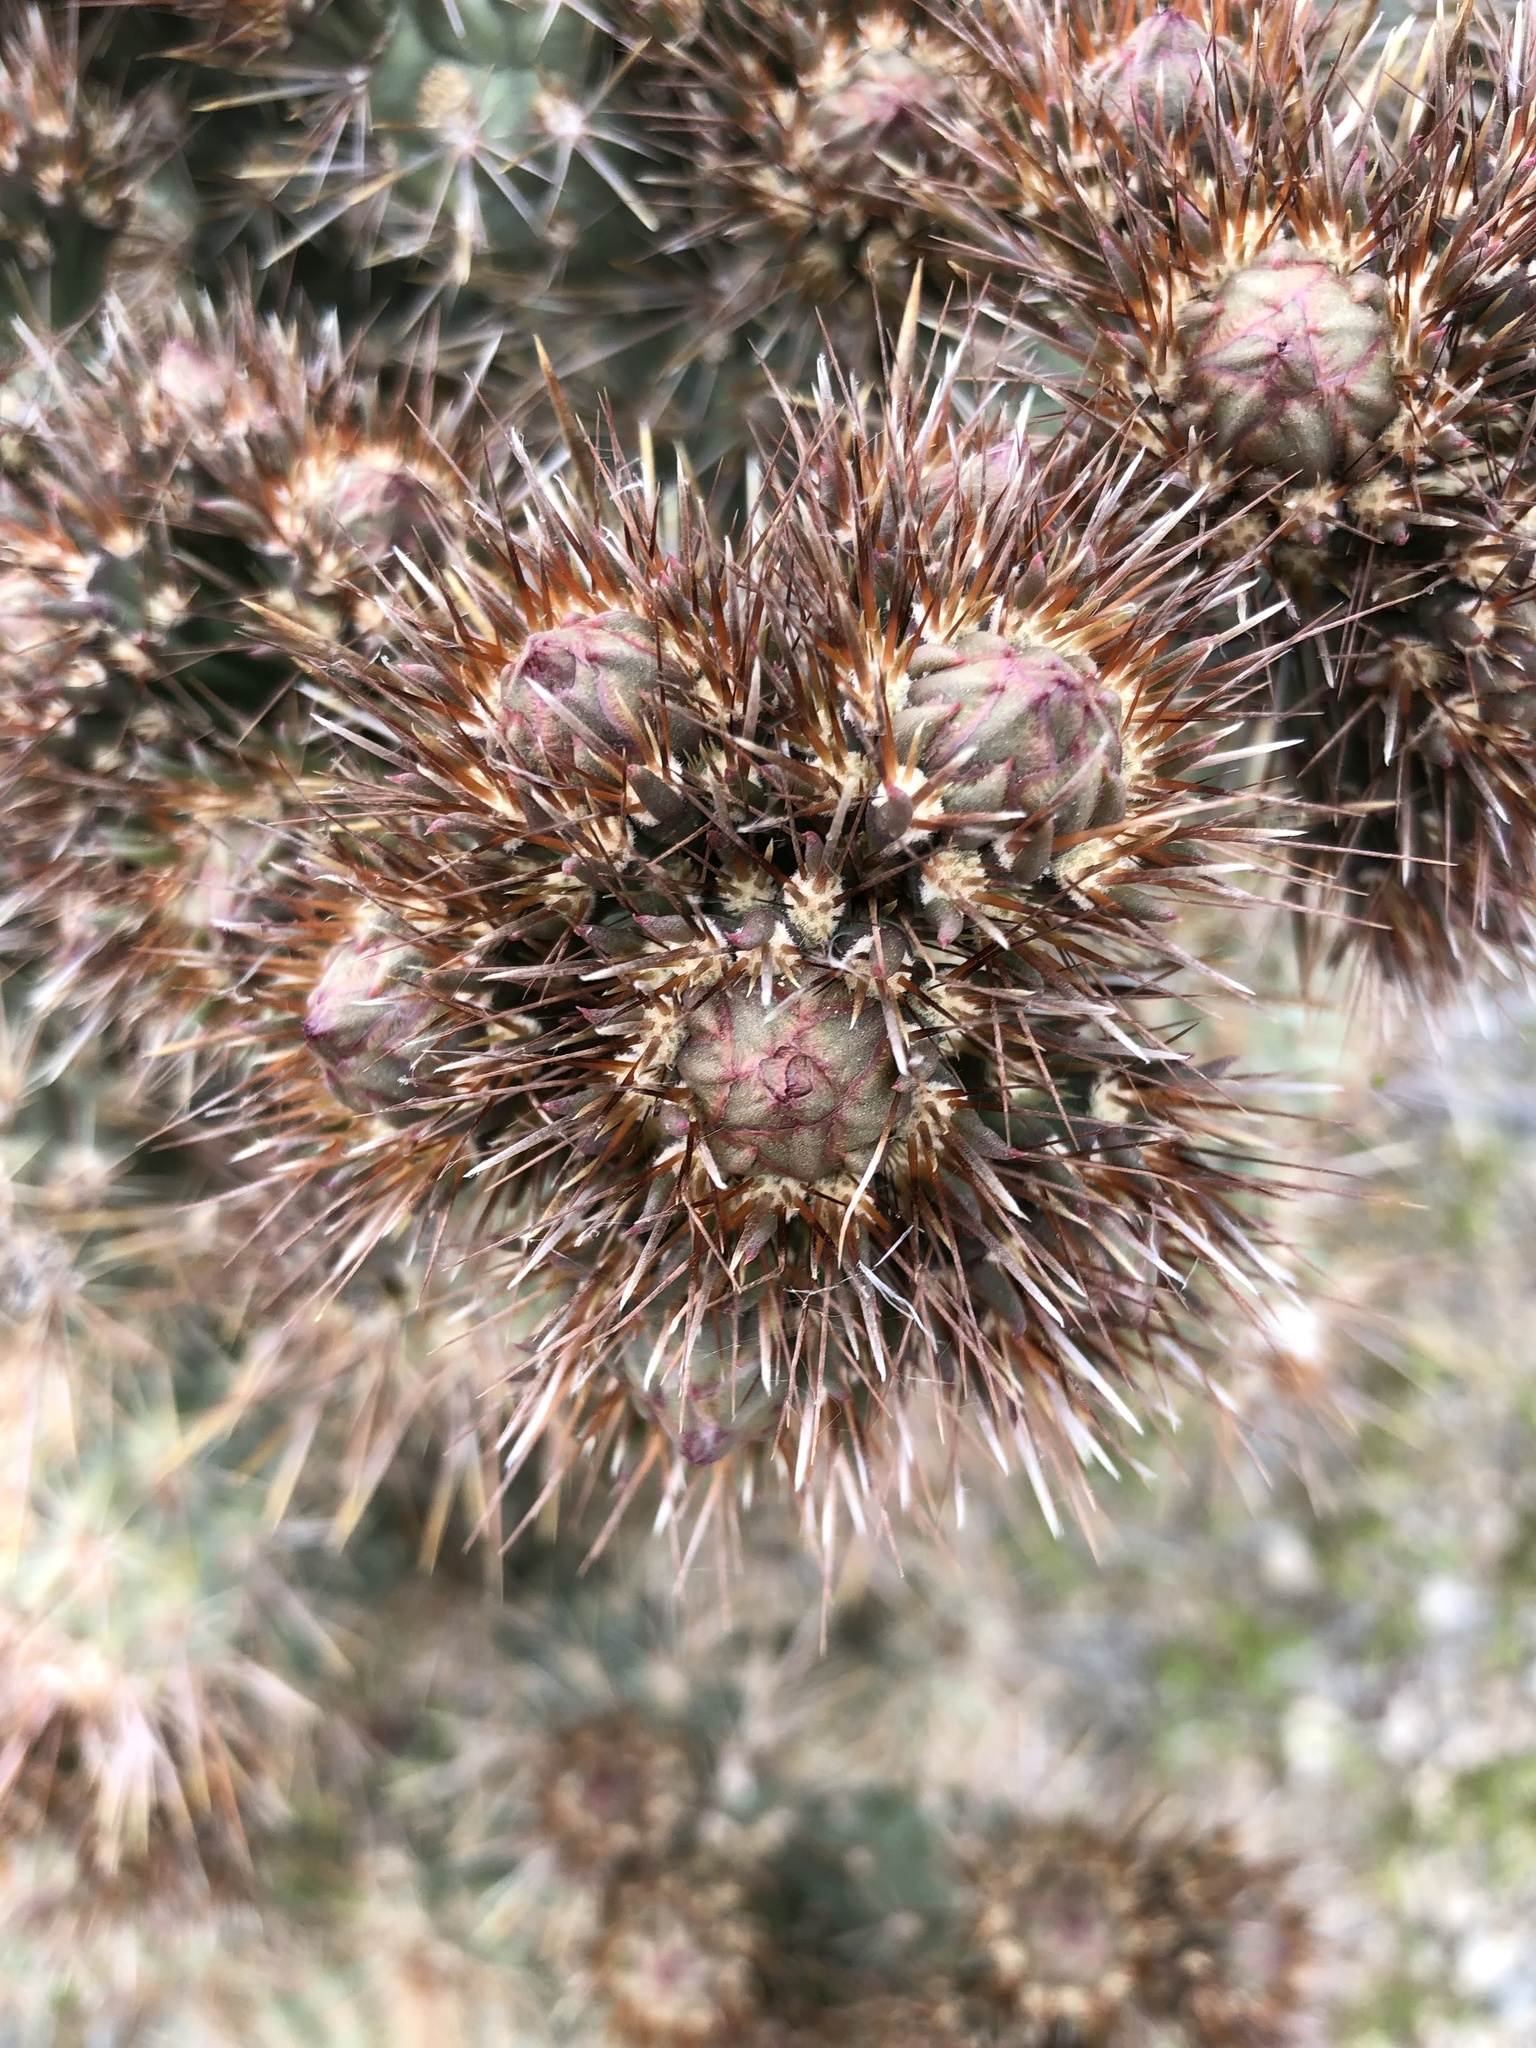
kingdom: Plantae
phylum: Tracheophyta
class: Magnoliopsida
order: Caryophyllales
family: Cactaceae
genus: Cylindropuntia
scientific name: Cylindropuntia echinocarpa
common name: Ground cholla
